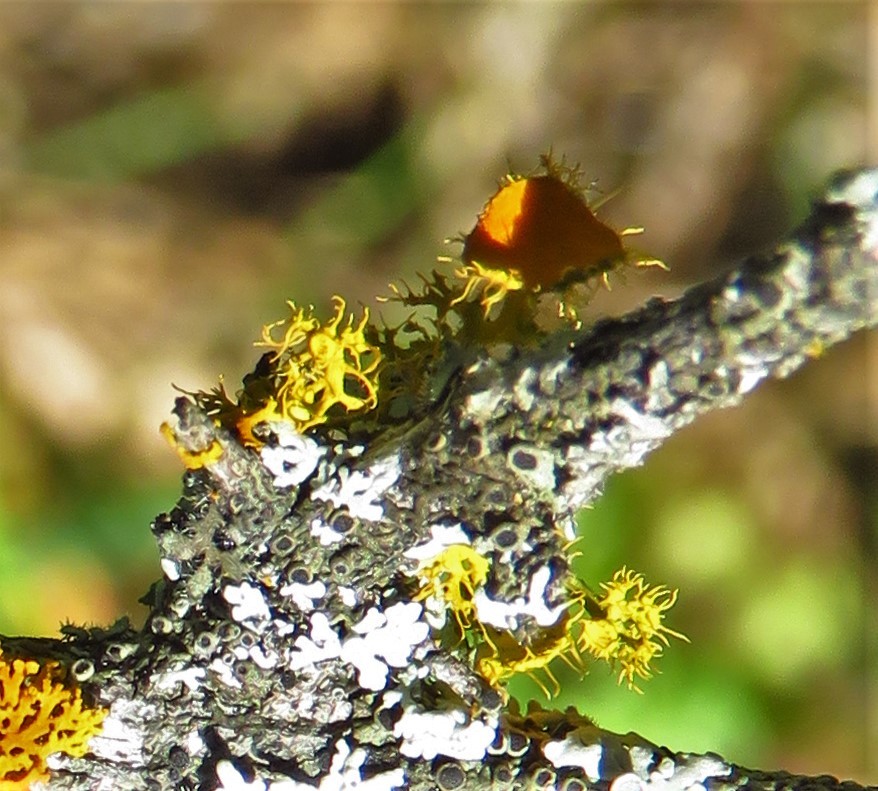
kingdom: Fungi
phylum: Ascomycota
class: Lecanoromycetes
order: Teloschistales
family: Teloschistaceae
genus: Niorma
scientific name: Niorma chrysophthalma
